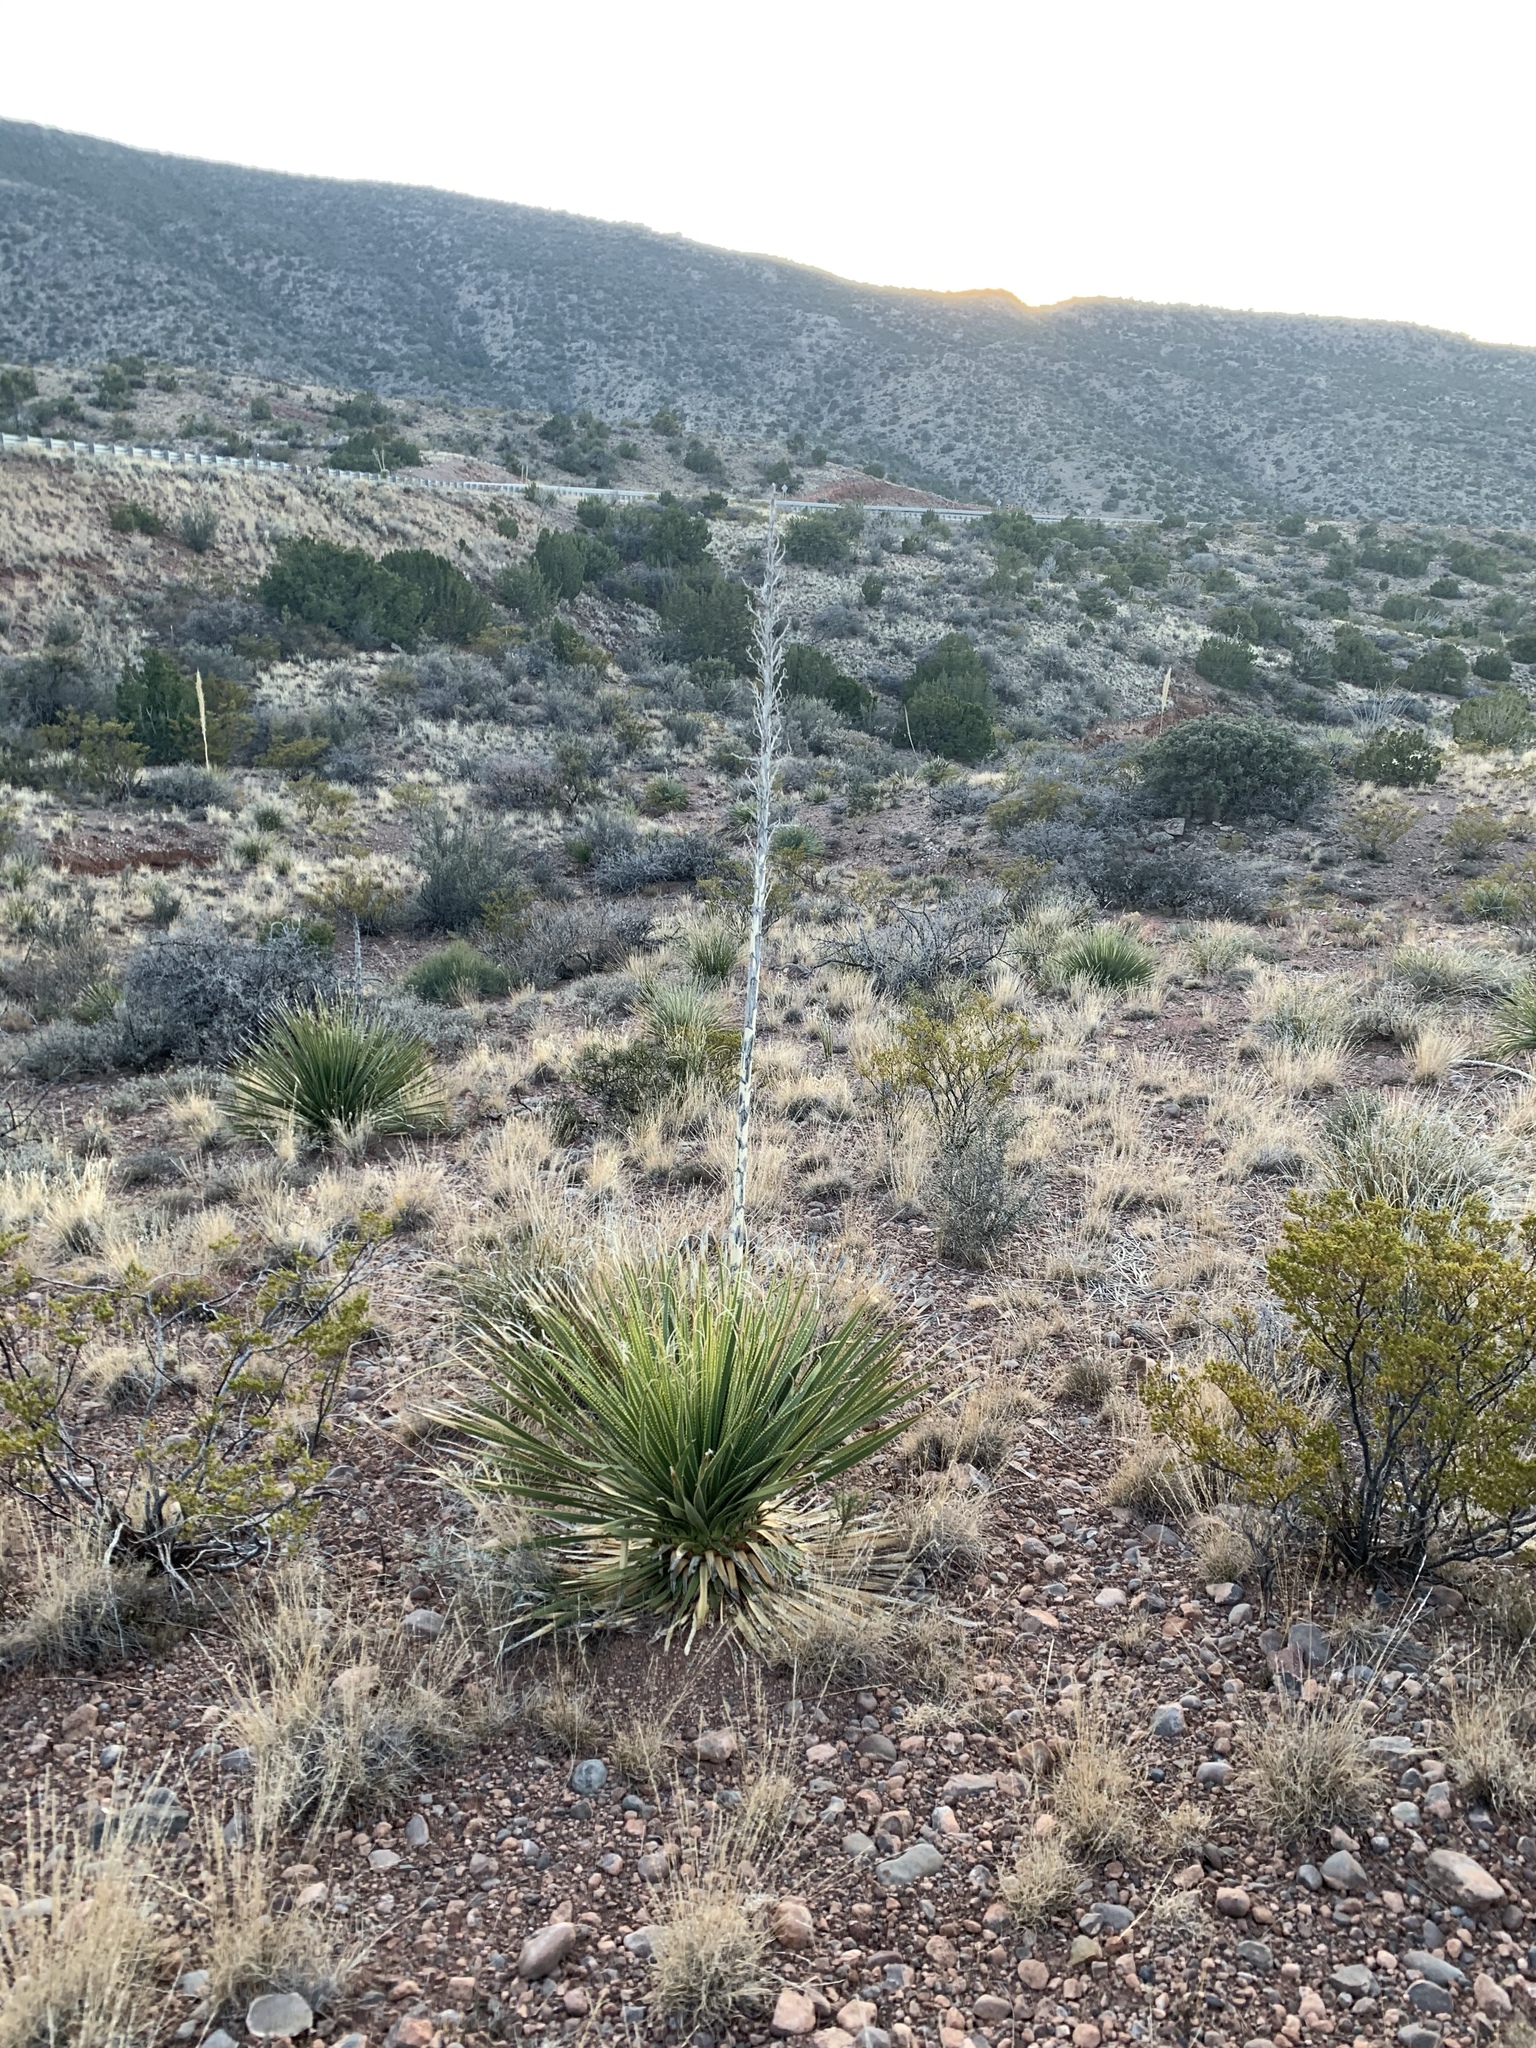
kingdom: Plantae
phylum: Tracheophyta
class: Liliopsida
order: Asparagales
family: Asparagaceae
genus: Dasylirion
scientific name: Dasylirion wheeleri
